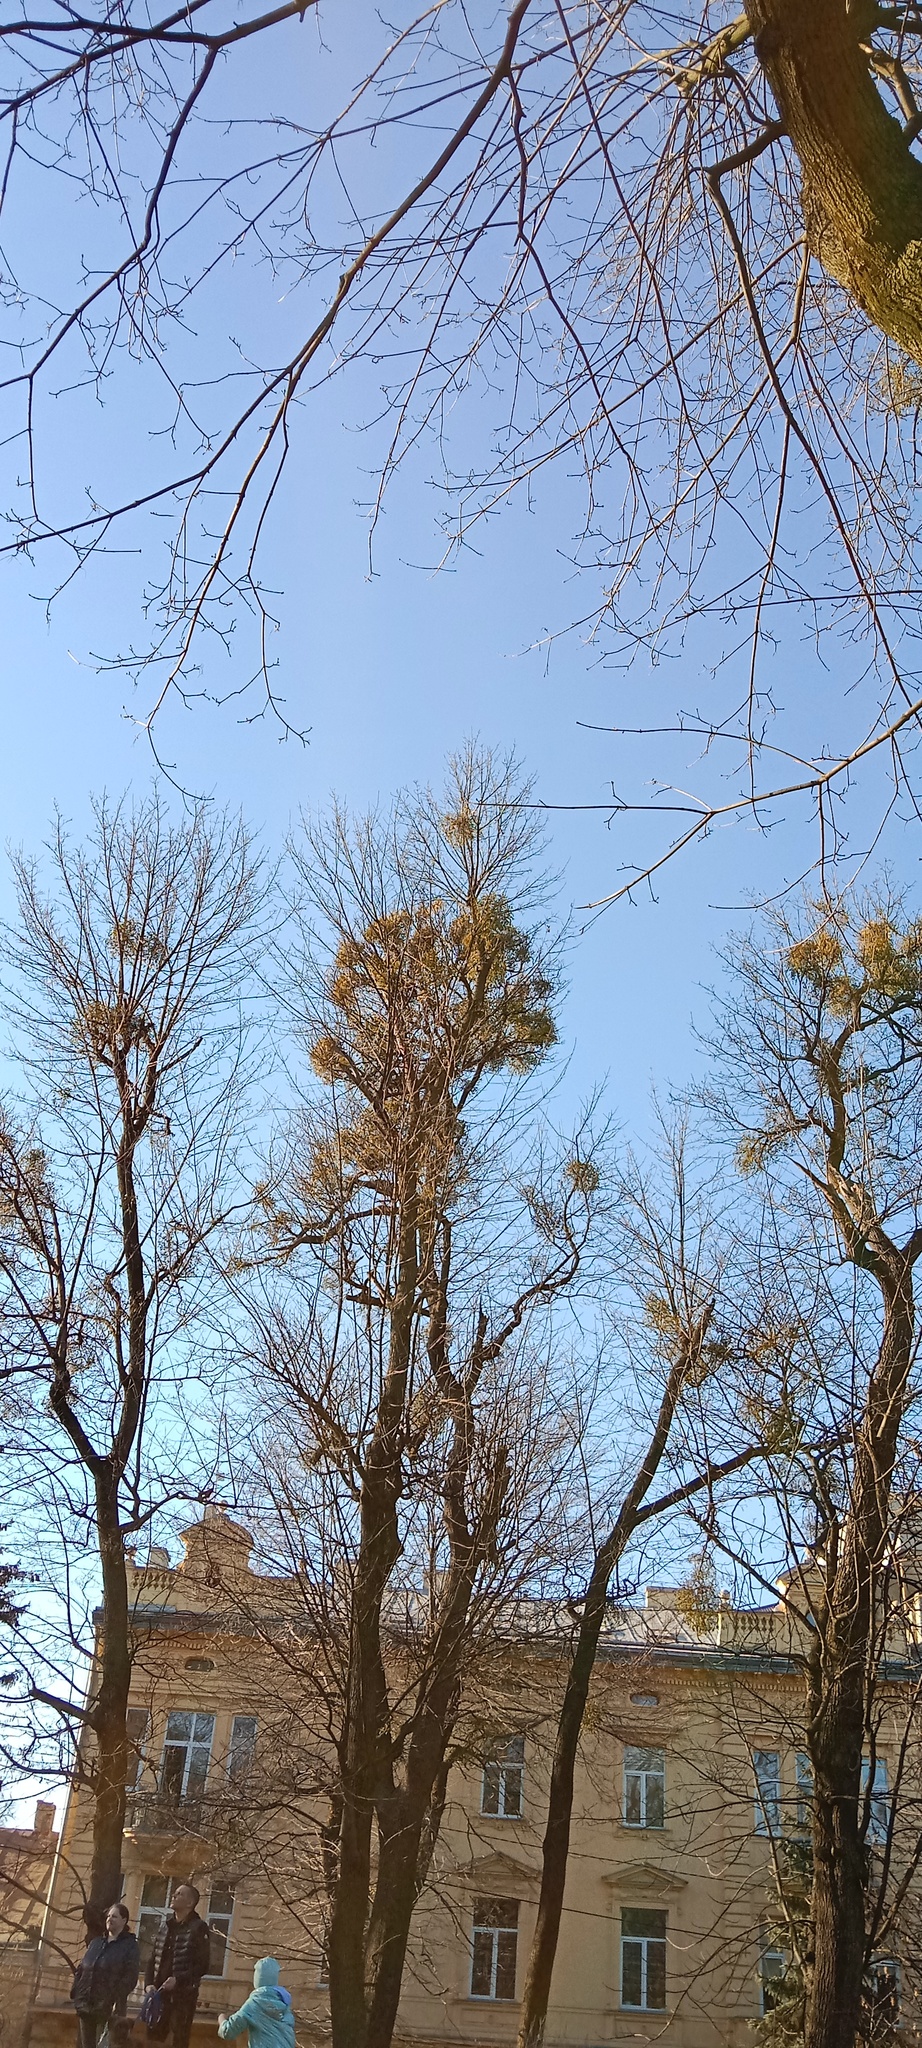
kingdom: Plantae
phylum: Tracheophyta
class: Magnoliopsida
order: Santalales
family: Viscaceae
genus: Viscum
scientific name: Viscum album
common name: Mistletoe
